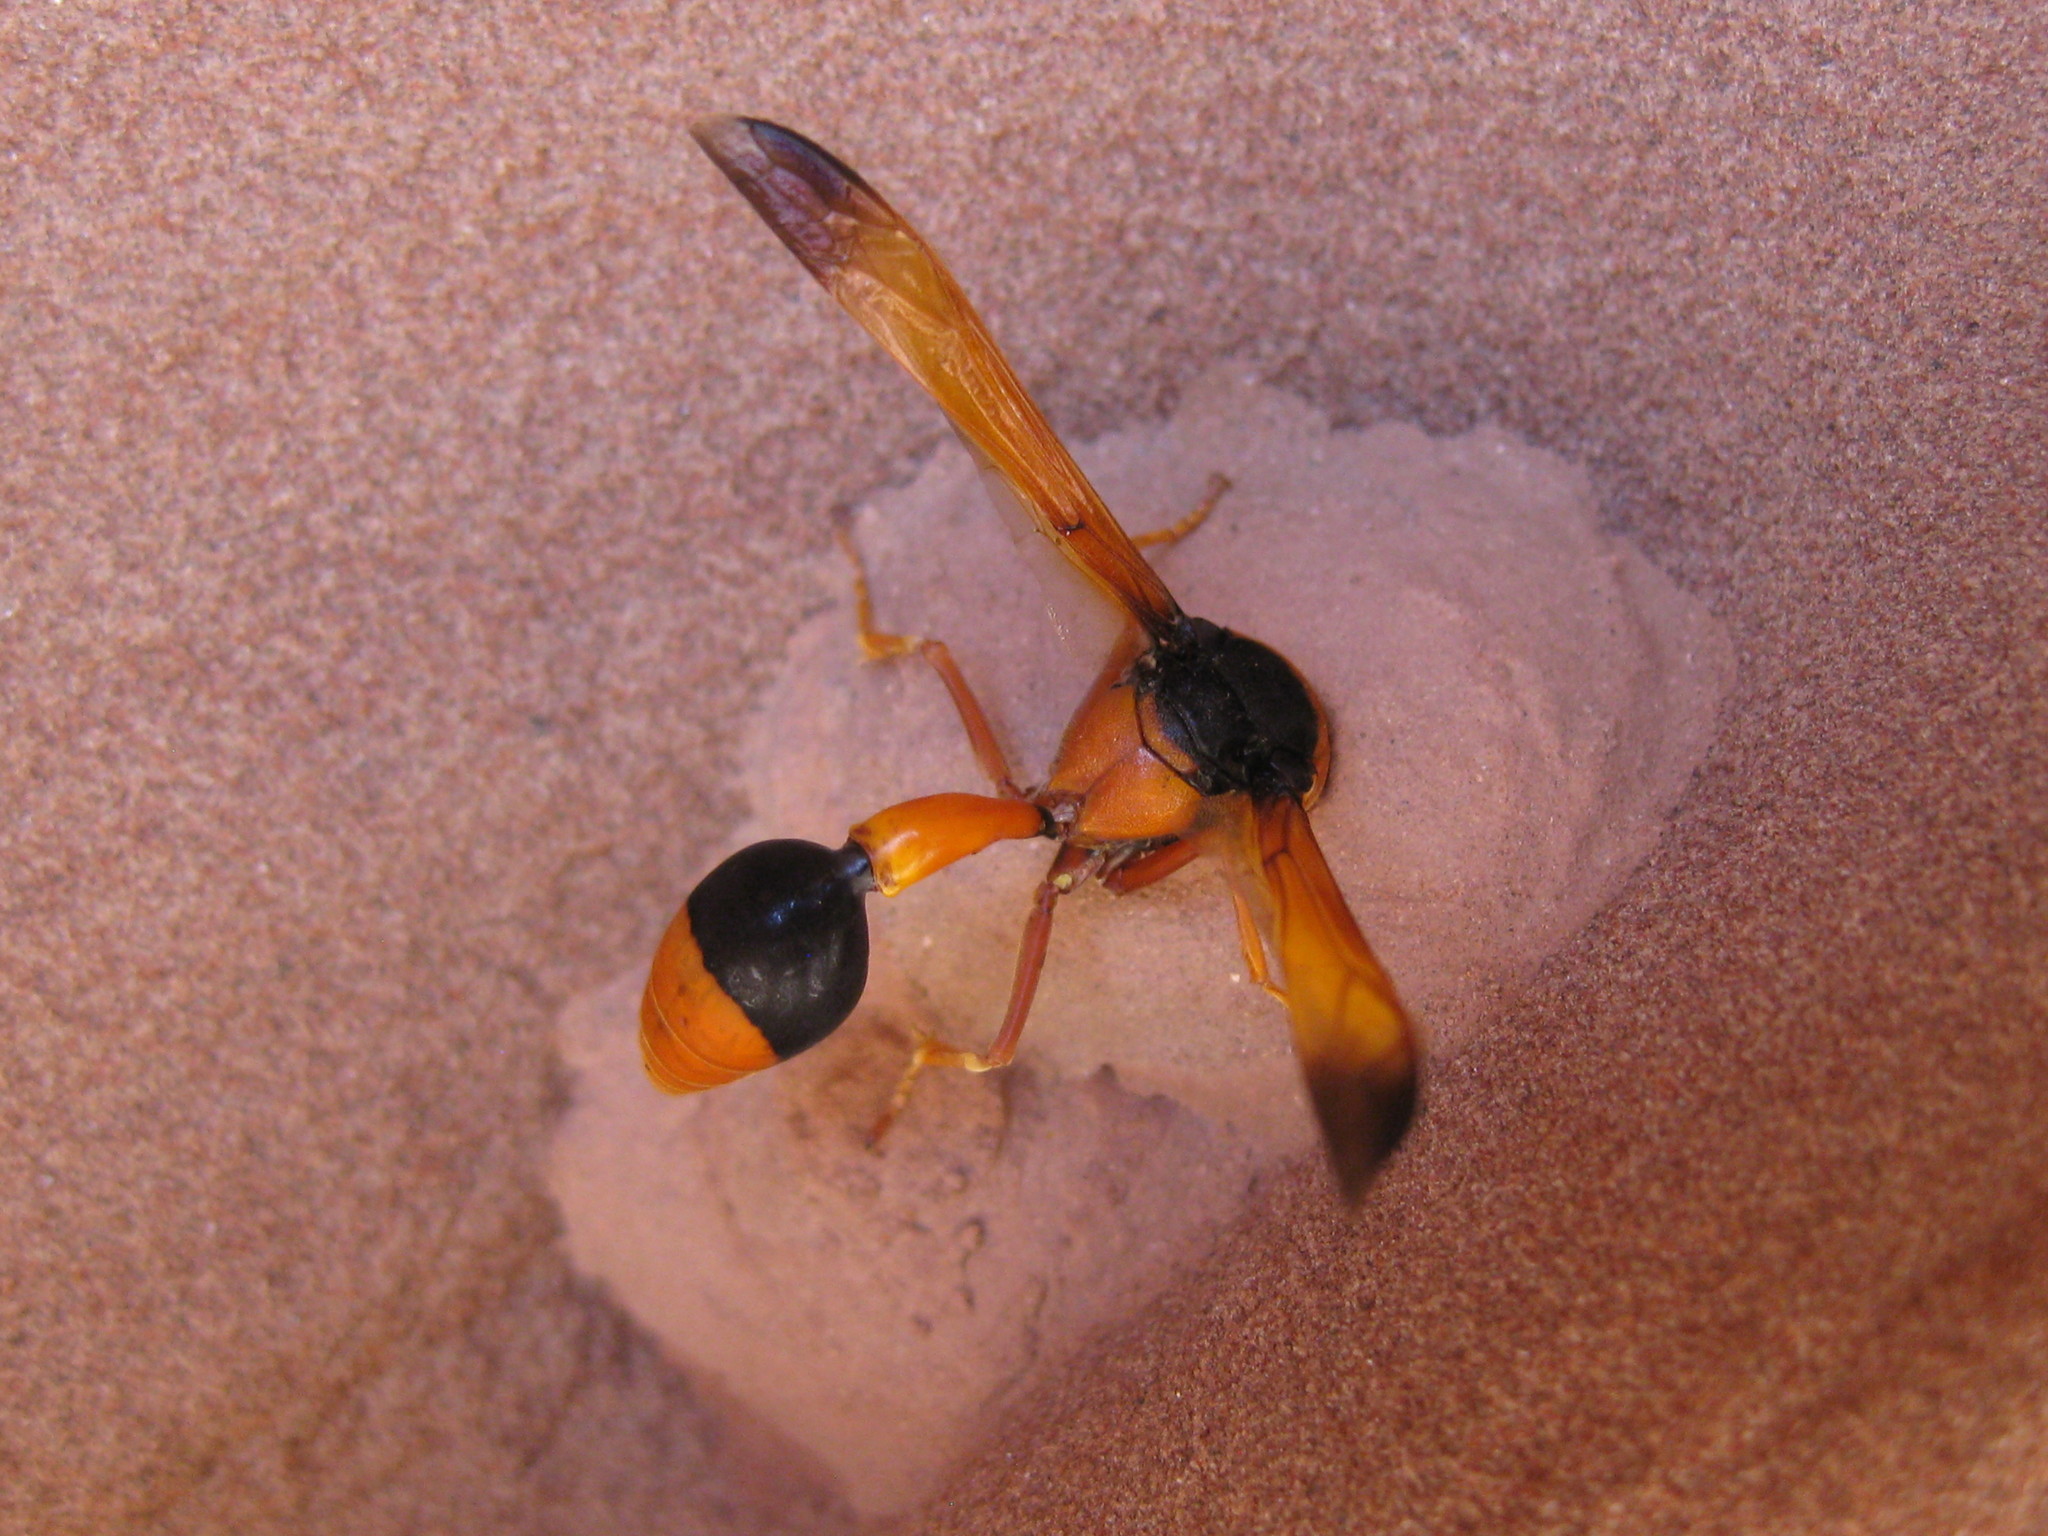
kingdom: Animalia
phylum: Arthropoda
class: Insecta
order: Hymenoptera
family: Eumenidae
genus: Delta
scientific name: Delta latreillei
